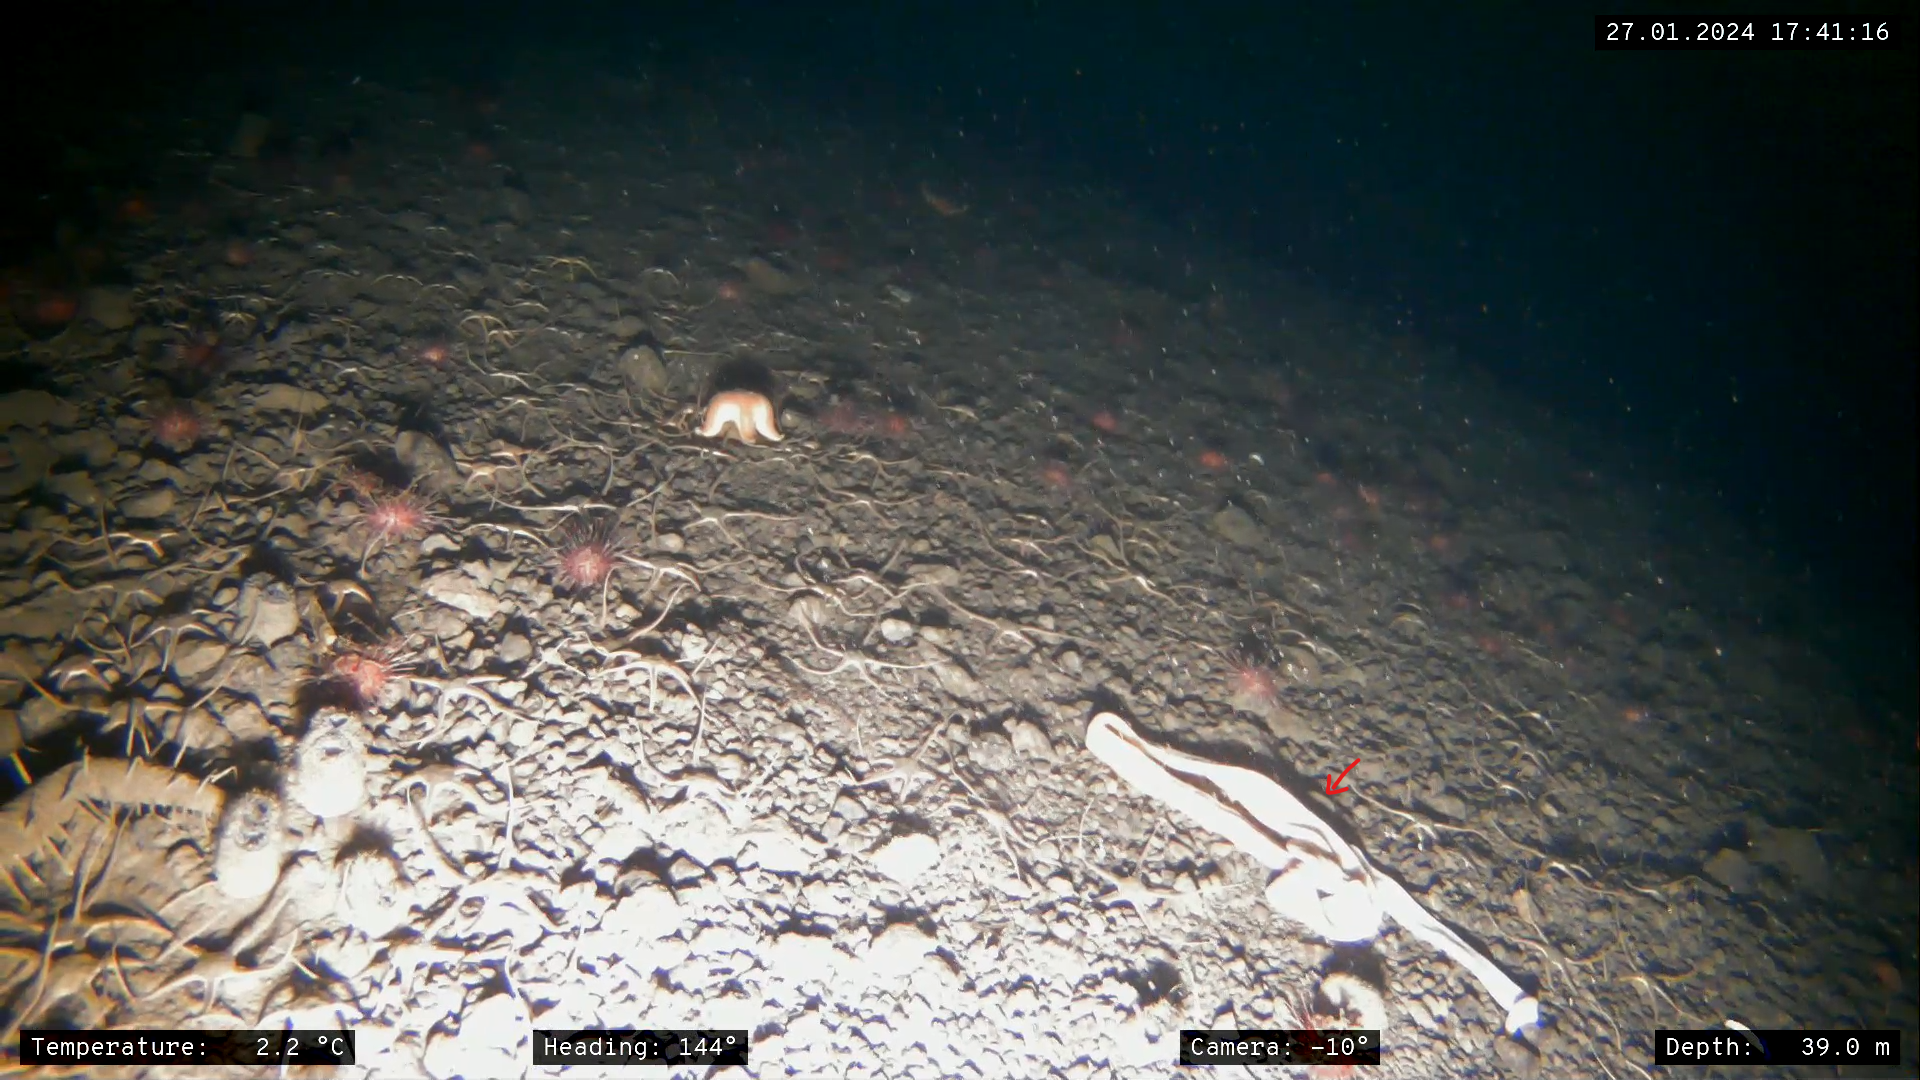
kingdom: Animalia
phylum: Nemertea
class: Pilidiophora
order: Heteronemertea
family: Lineidae
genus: Parborlasia
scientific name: Parborlasia corrugatus
